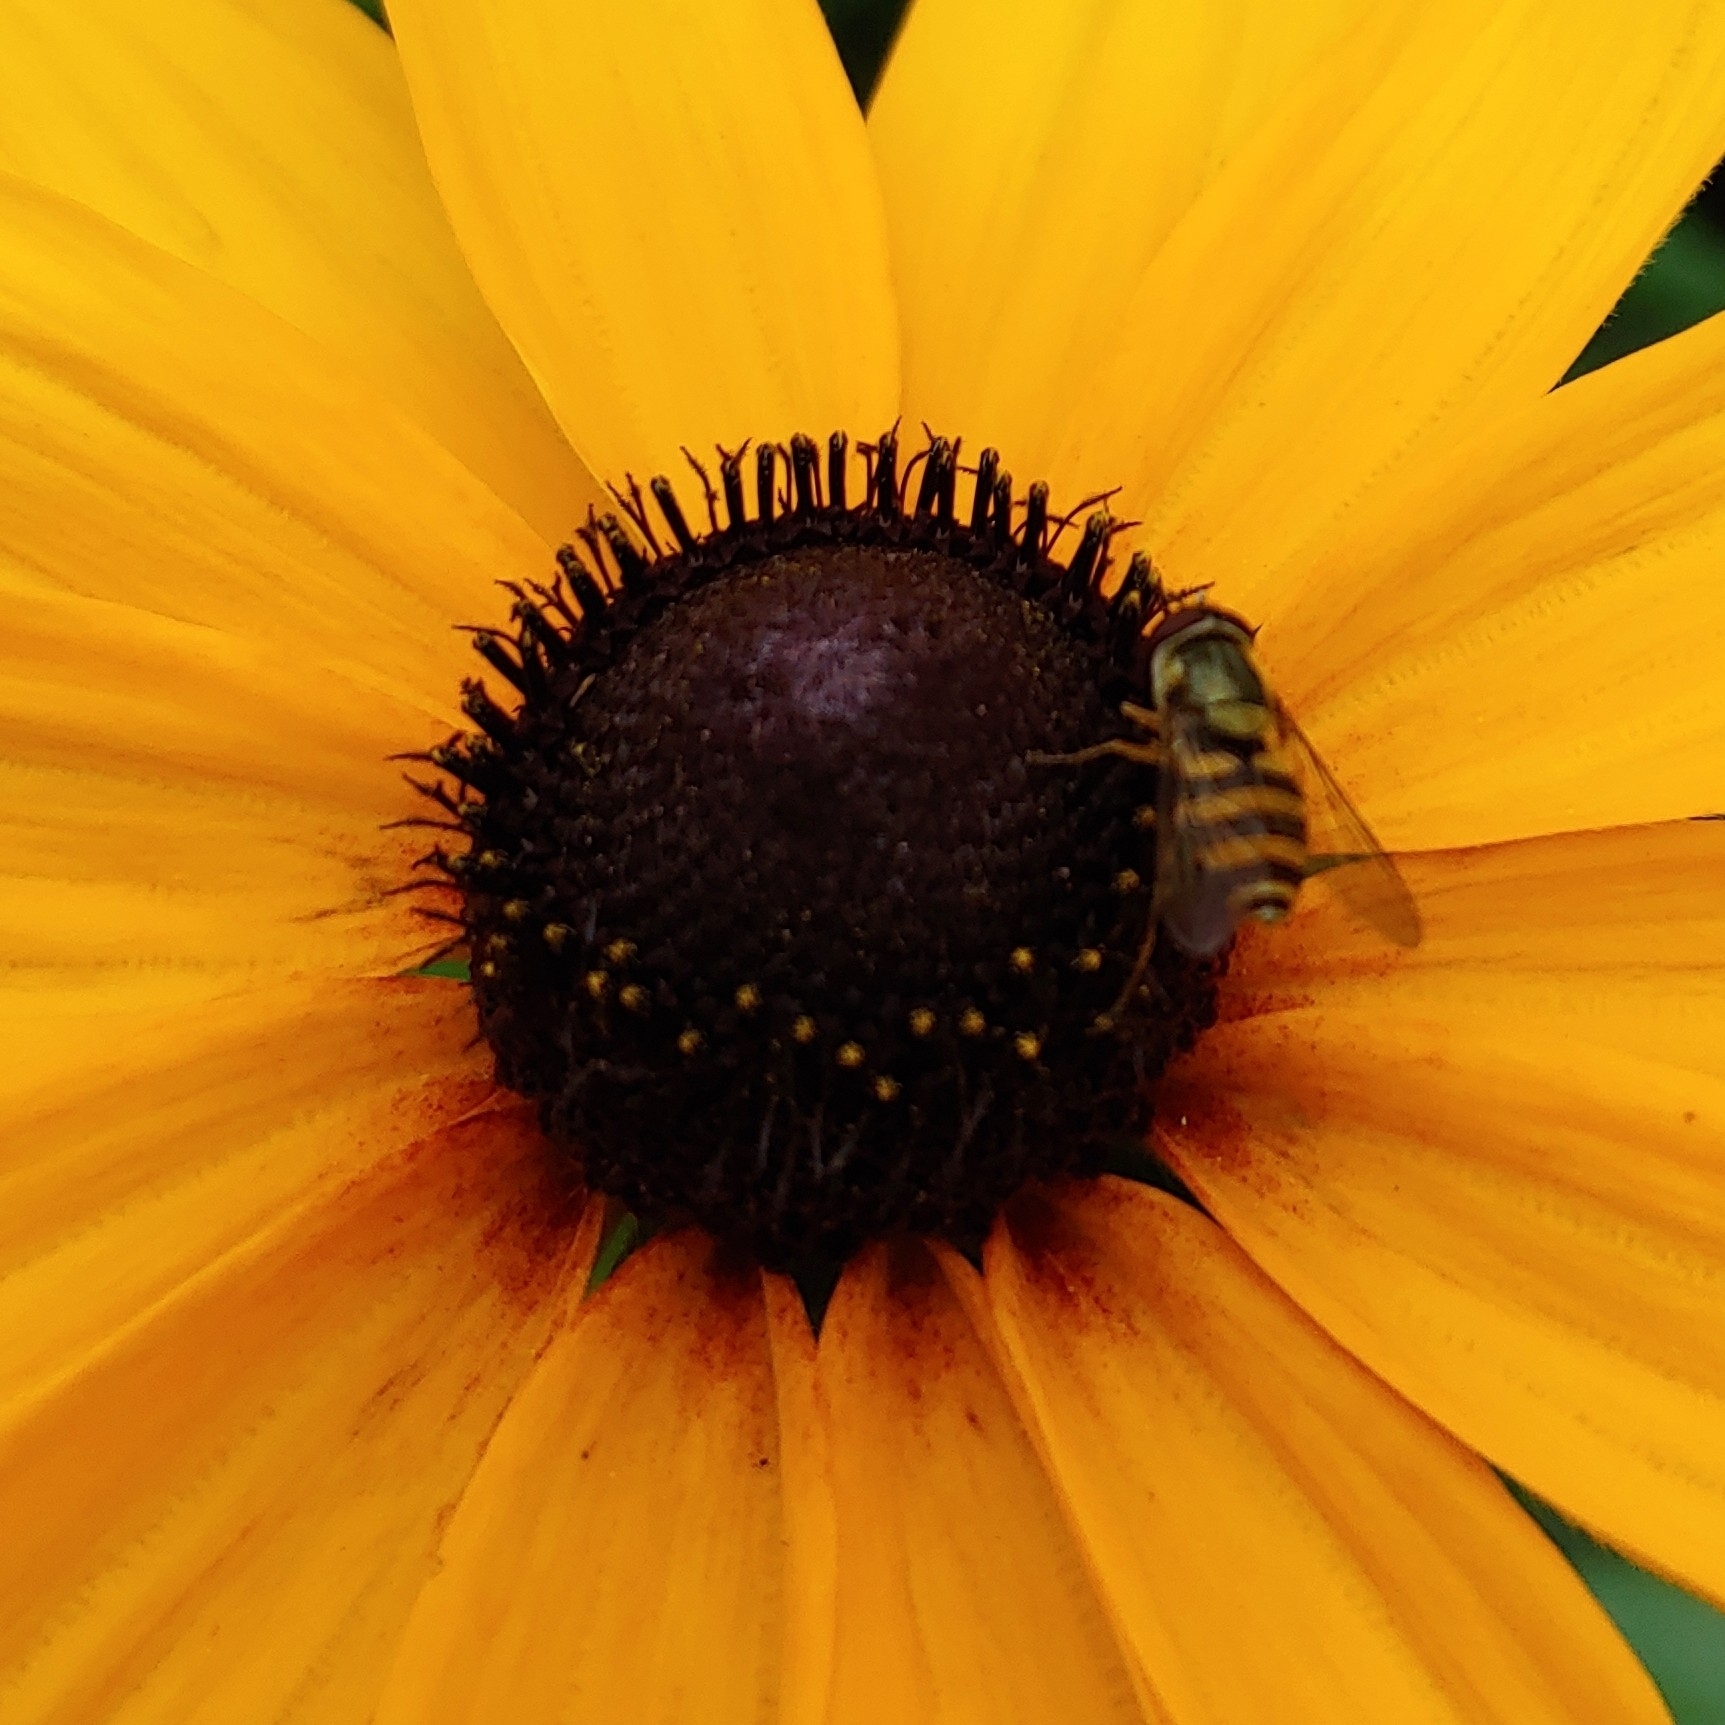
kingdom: Animalia
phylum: Arthropoda
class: Insecta
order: Diptera
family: Syrphidae
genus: Syrphus
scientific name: Syrphus
